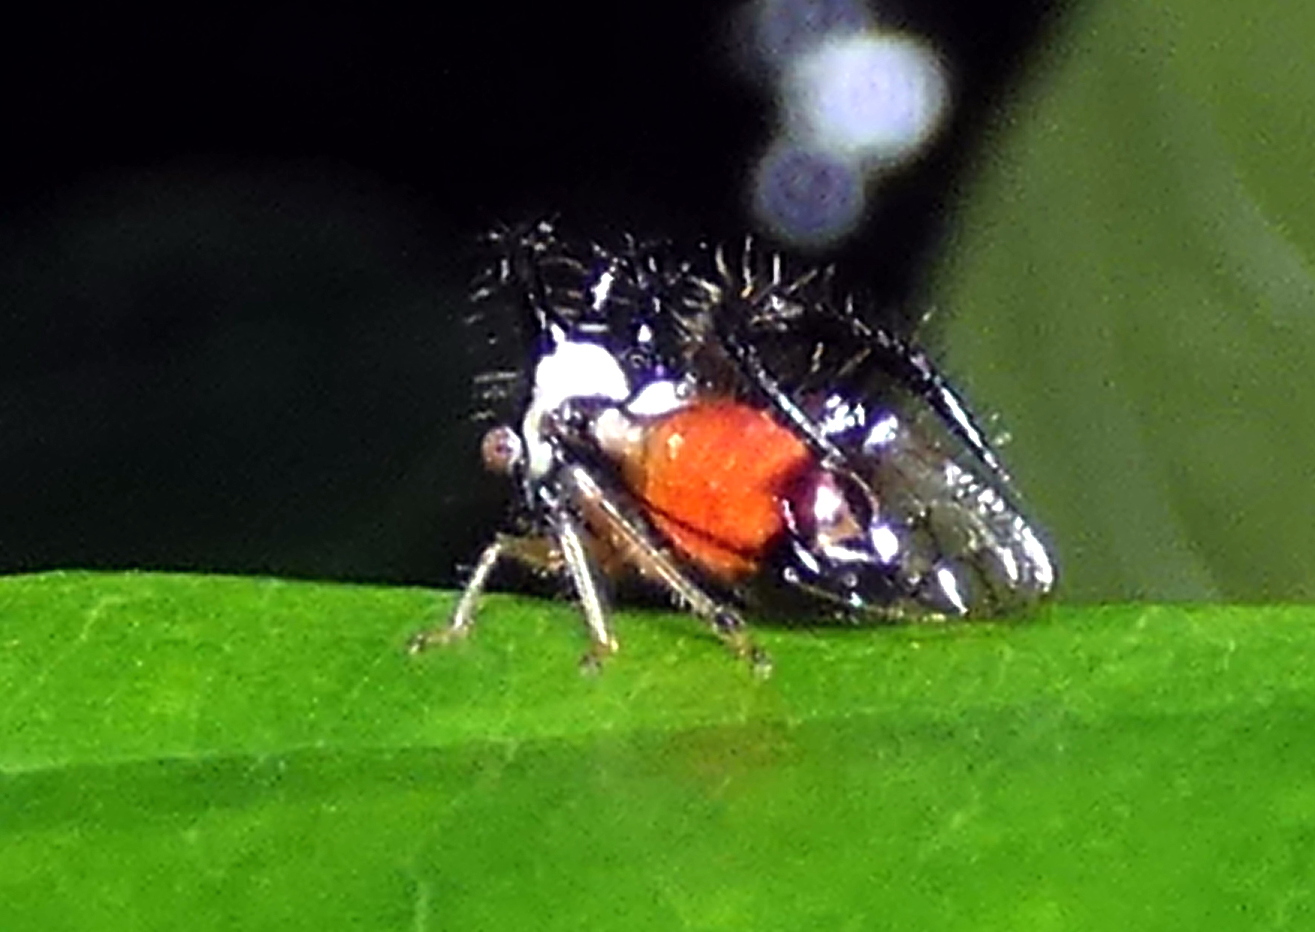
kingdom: Animalia
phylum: Arthropoda
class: Insecta
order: Hemiptera
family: Membracidae
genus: Cyphonia
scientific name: Cyphonia trifida
